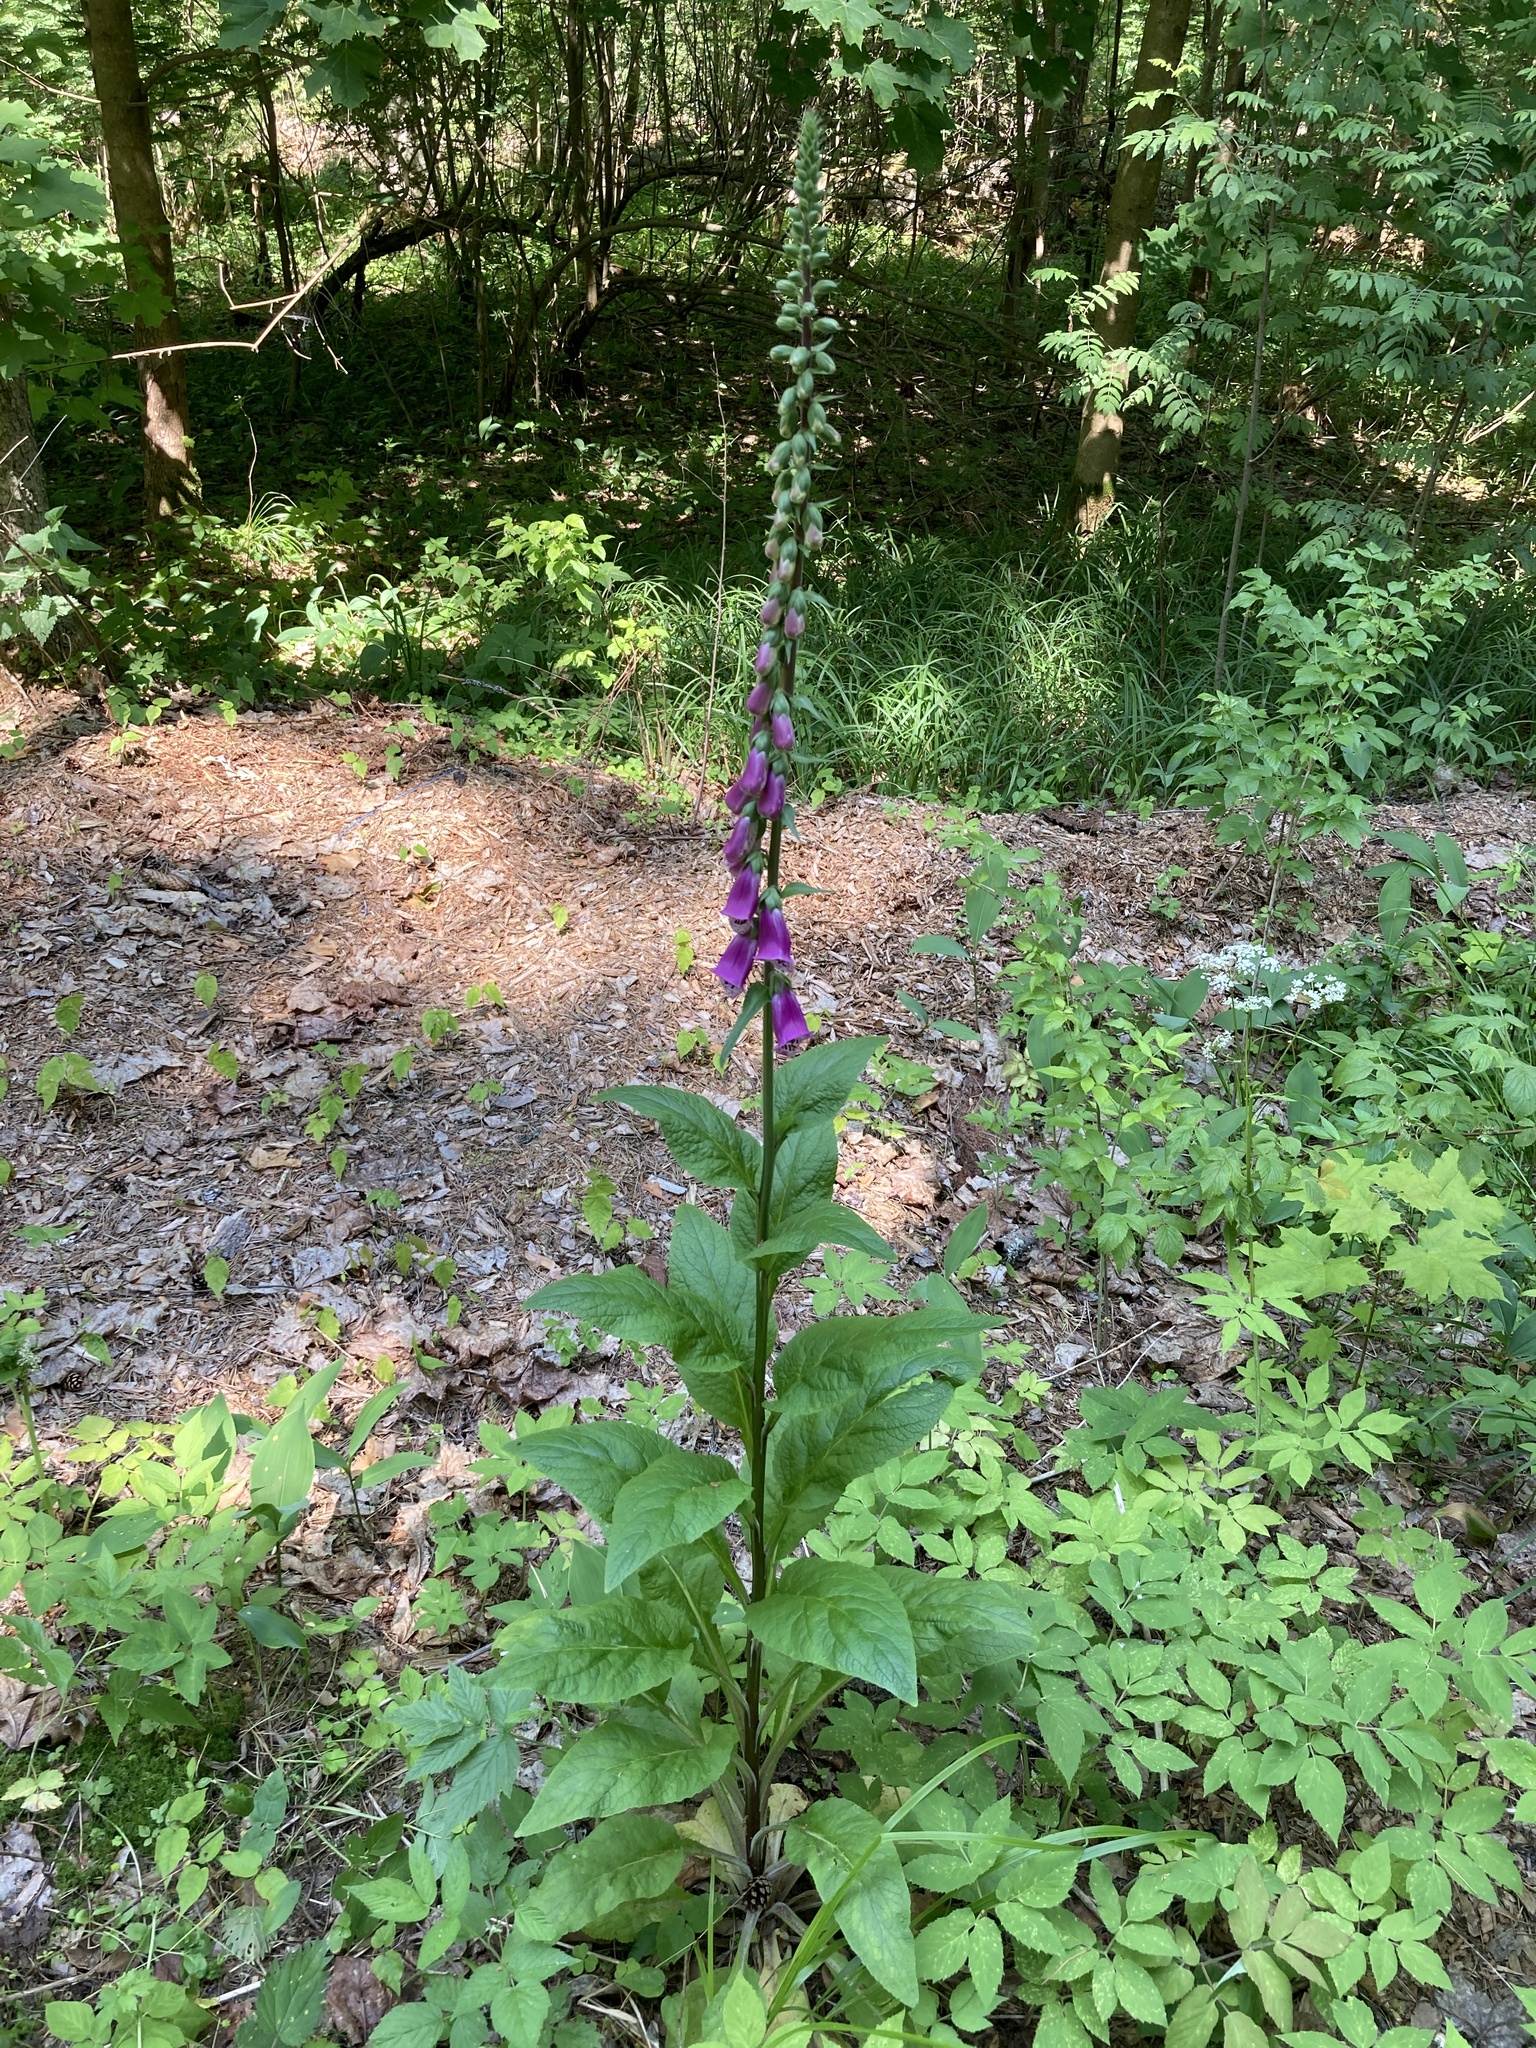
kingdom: Plantae
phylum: Tracheophyta
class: Magnoliopsida
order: Lamiales
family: Plantaginaceae
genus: Digitalis
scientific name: Digitalis purpurea
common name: Foxglove
